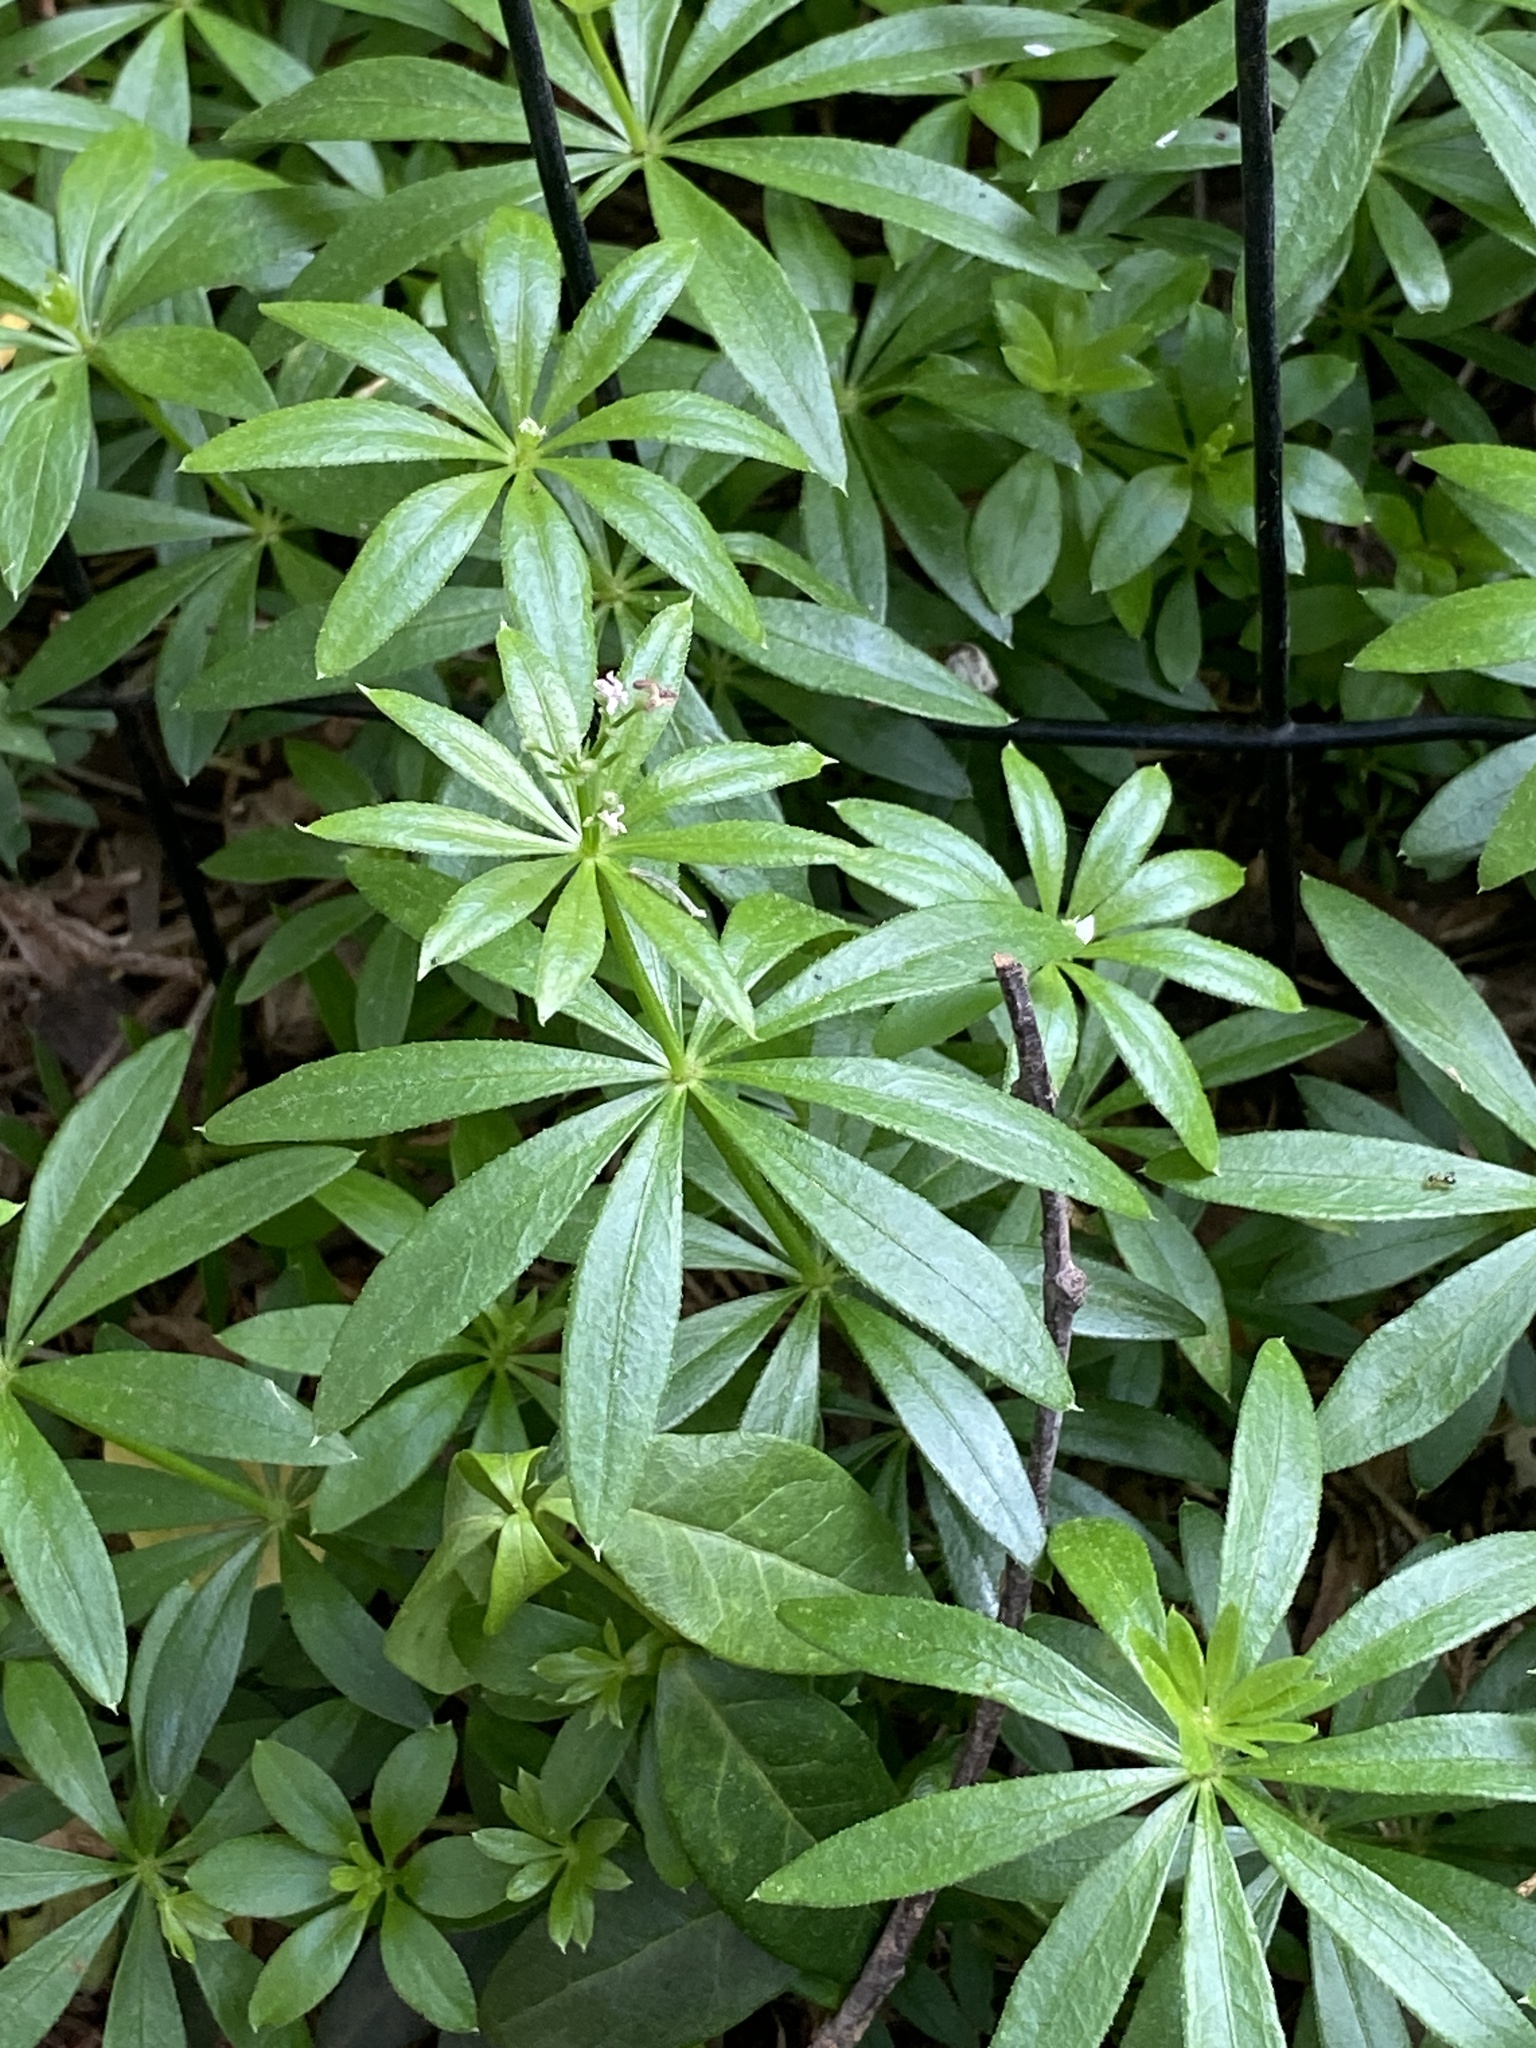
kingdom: Plantae
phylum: Tracheophyta
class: Magnoliopsida
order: Gentianales
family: Rubiaceae
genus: Galium
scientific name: Galium odoratum
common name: Sweet woodruff
